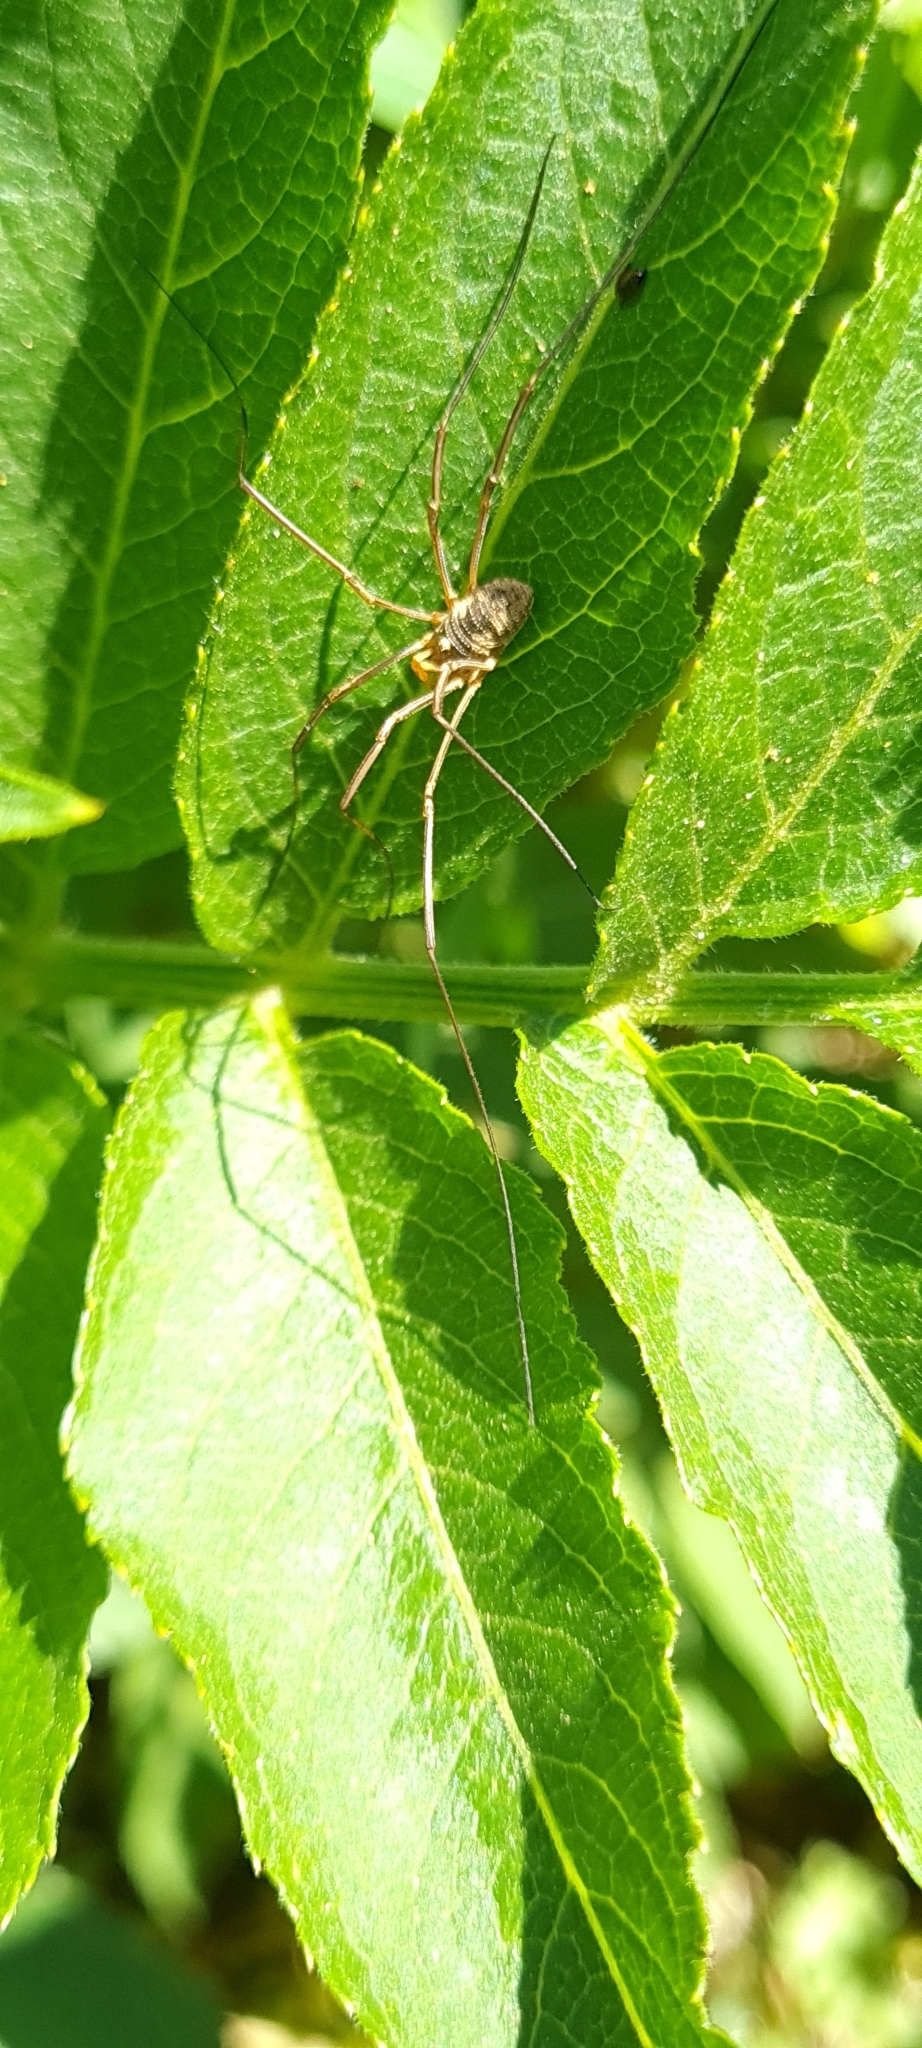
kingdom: Animalia
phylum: Arthropoda
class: Arachnida
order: Opiliones
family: Phalangiidae
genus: Phalangium
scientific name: Phalangium opilio
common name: Daddy longleg
